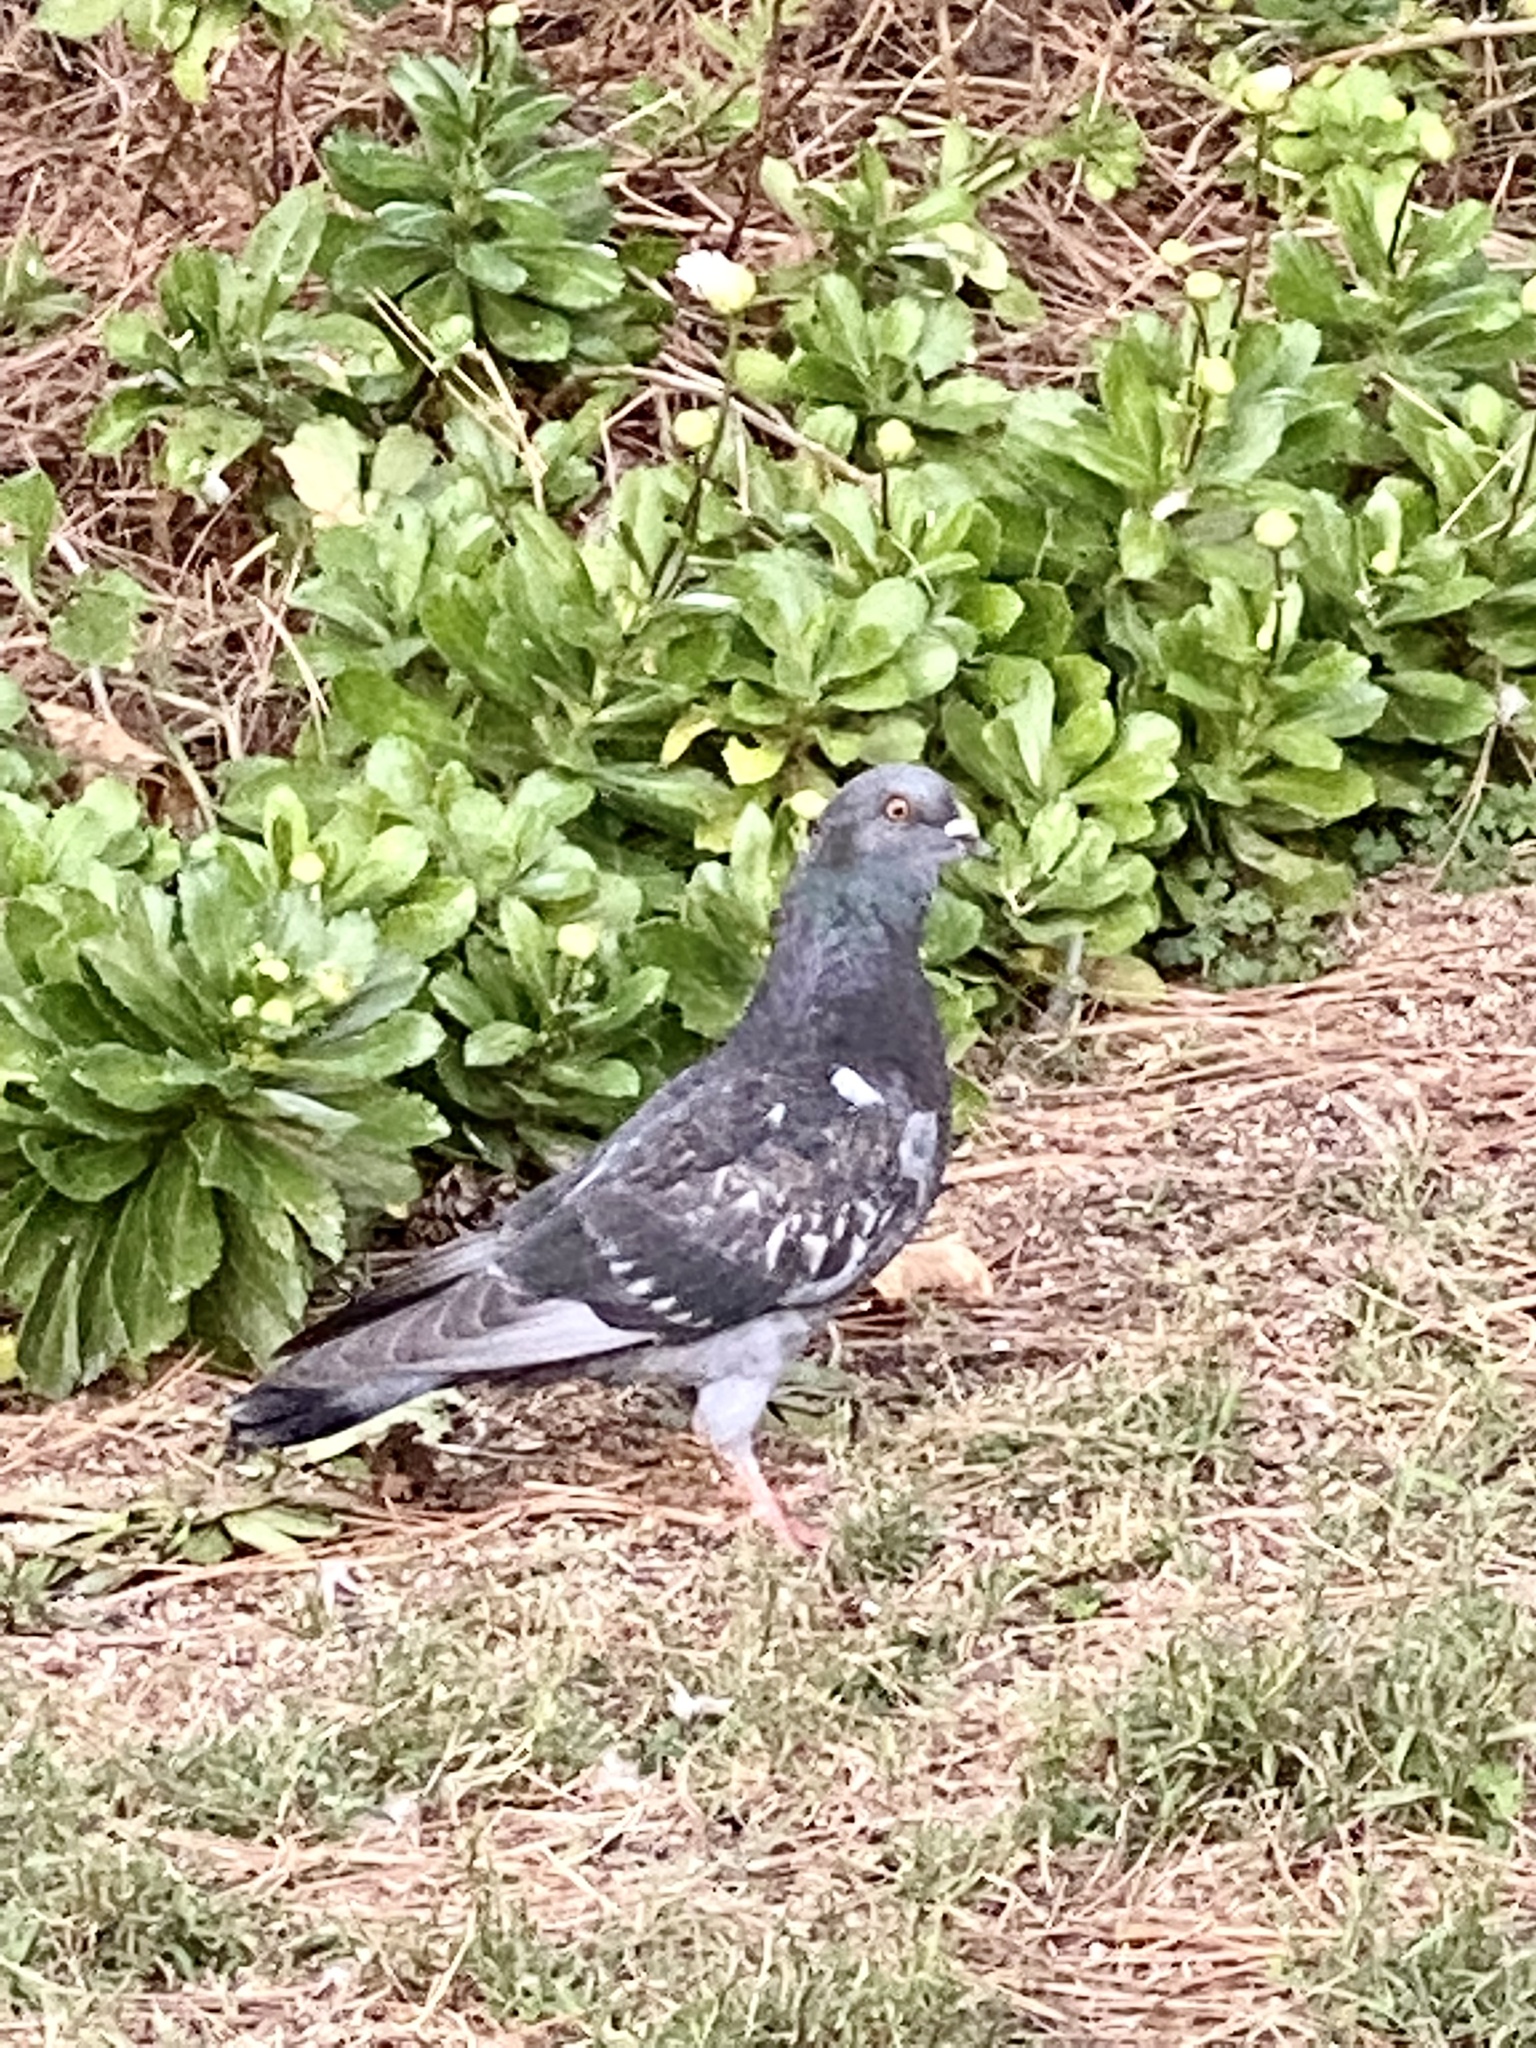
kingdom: Animalia
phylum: Chordata
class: Aves
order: Columbiformes
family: Columbidae
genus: Columba
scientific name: Columba livia
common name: Rock pigeon
